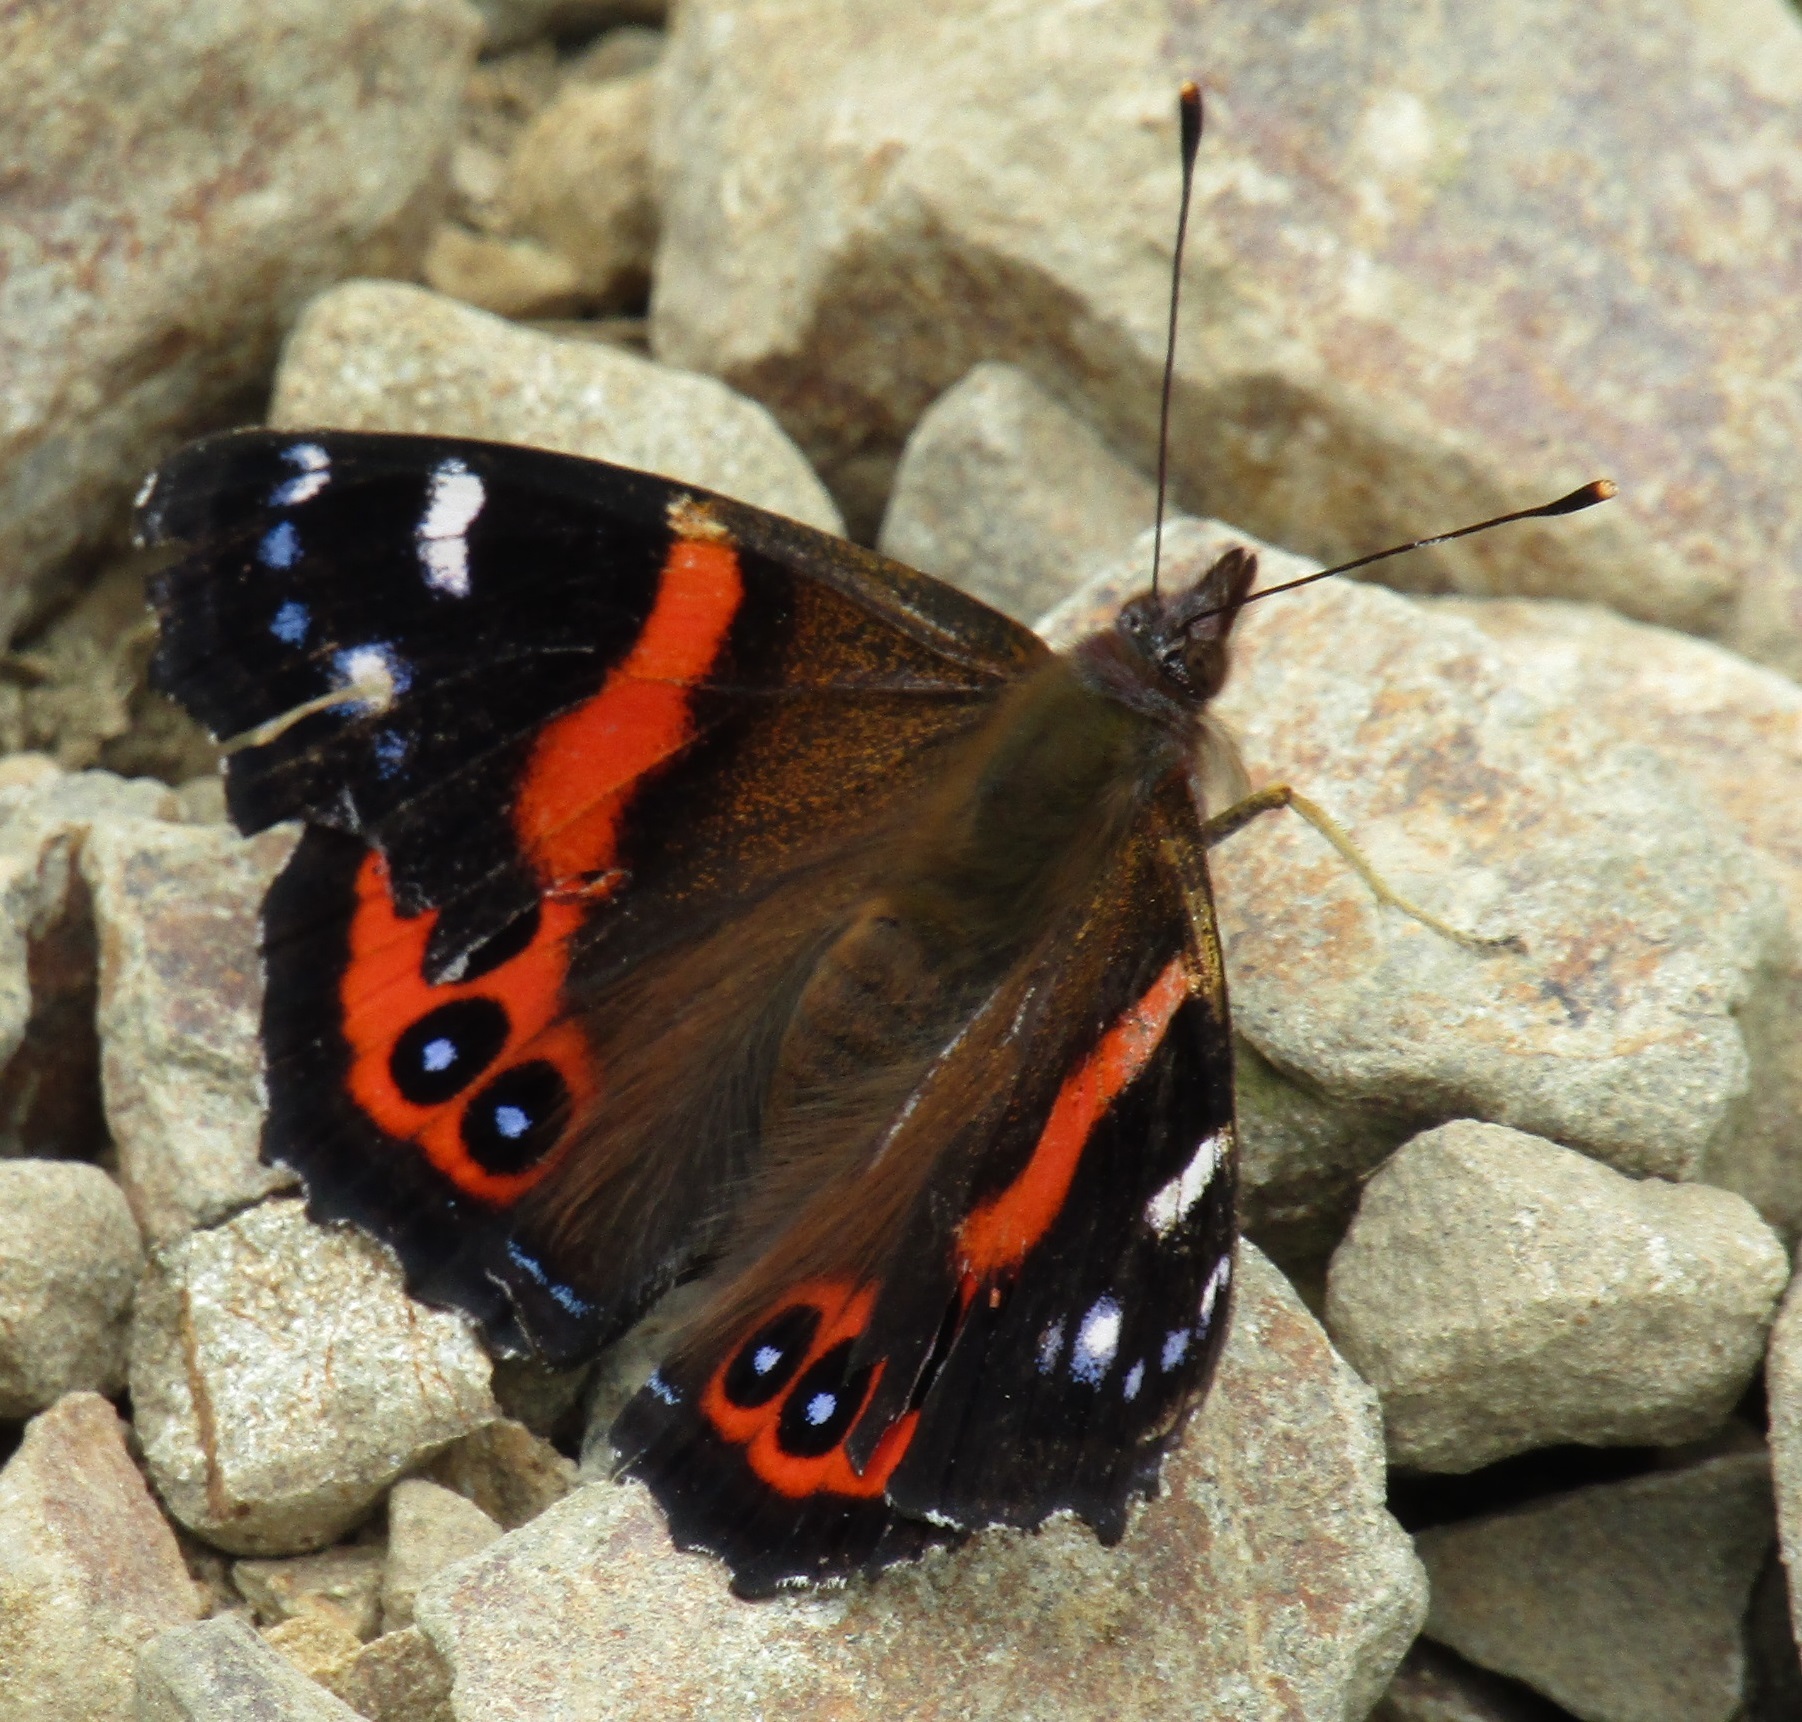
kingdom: Animalia
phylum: Arthropoda
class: Insecta
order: Lepidoptera
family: Nymphalidae
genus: Vanessa
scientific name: Vanessa gonerilla
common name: New zealand red admiral
